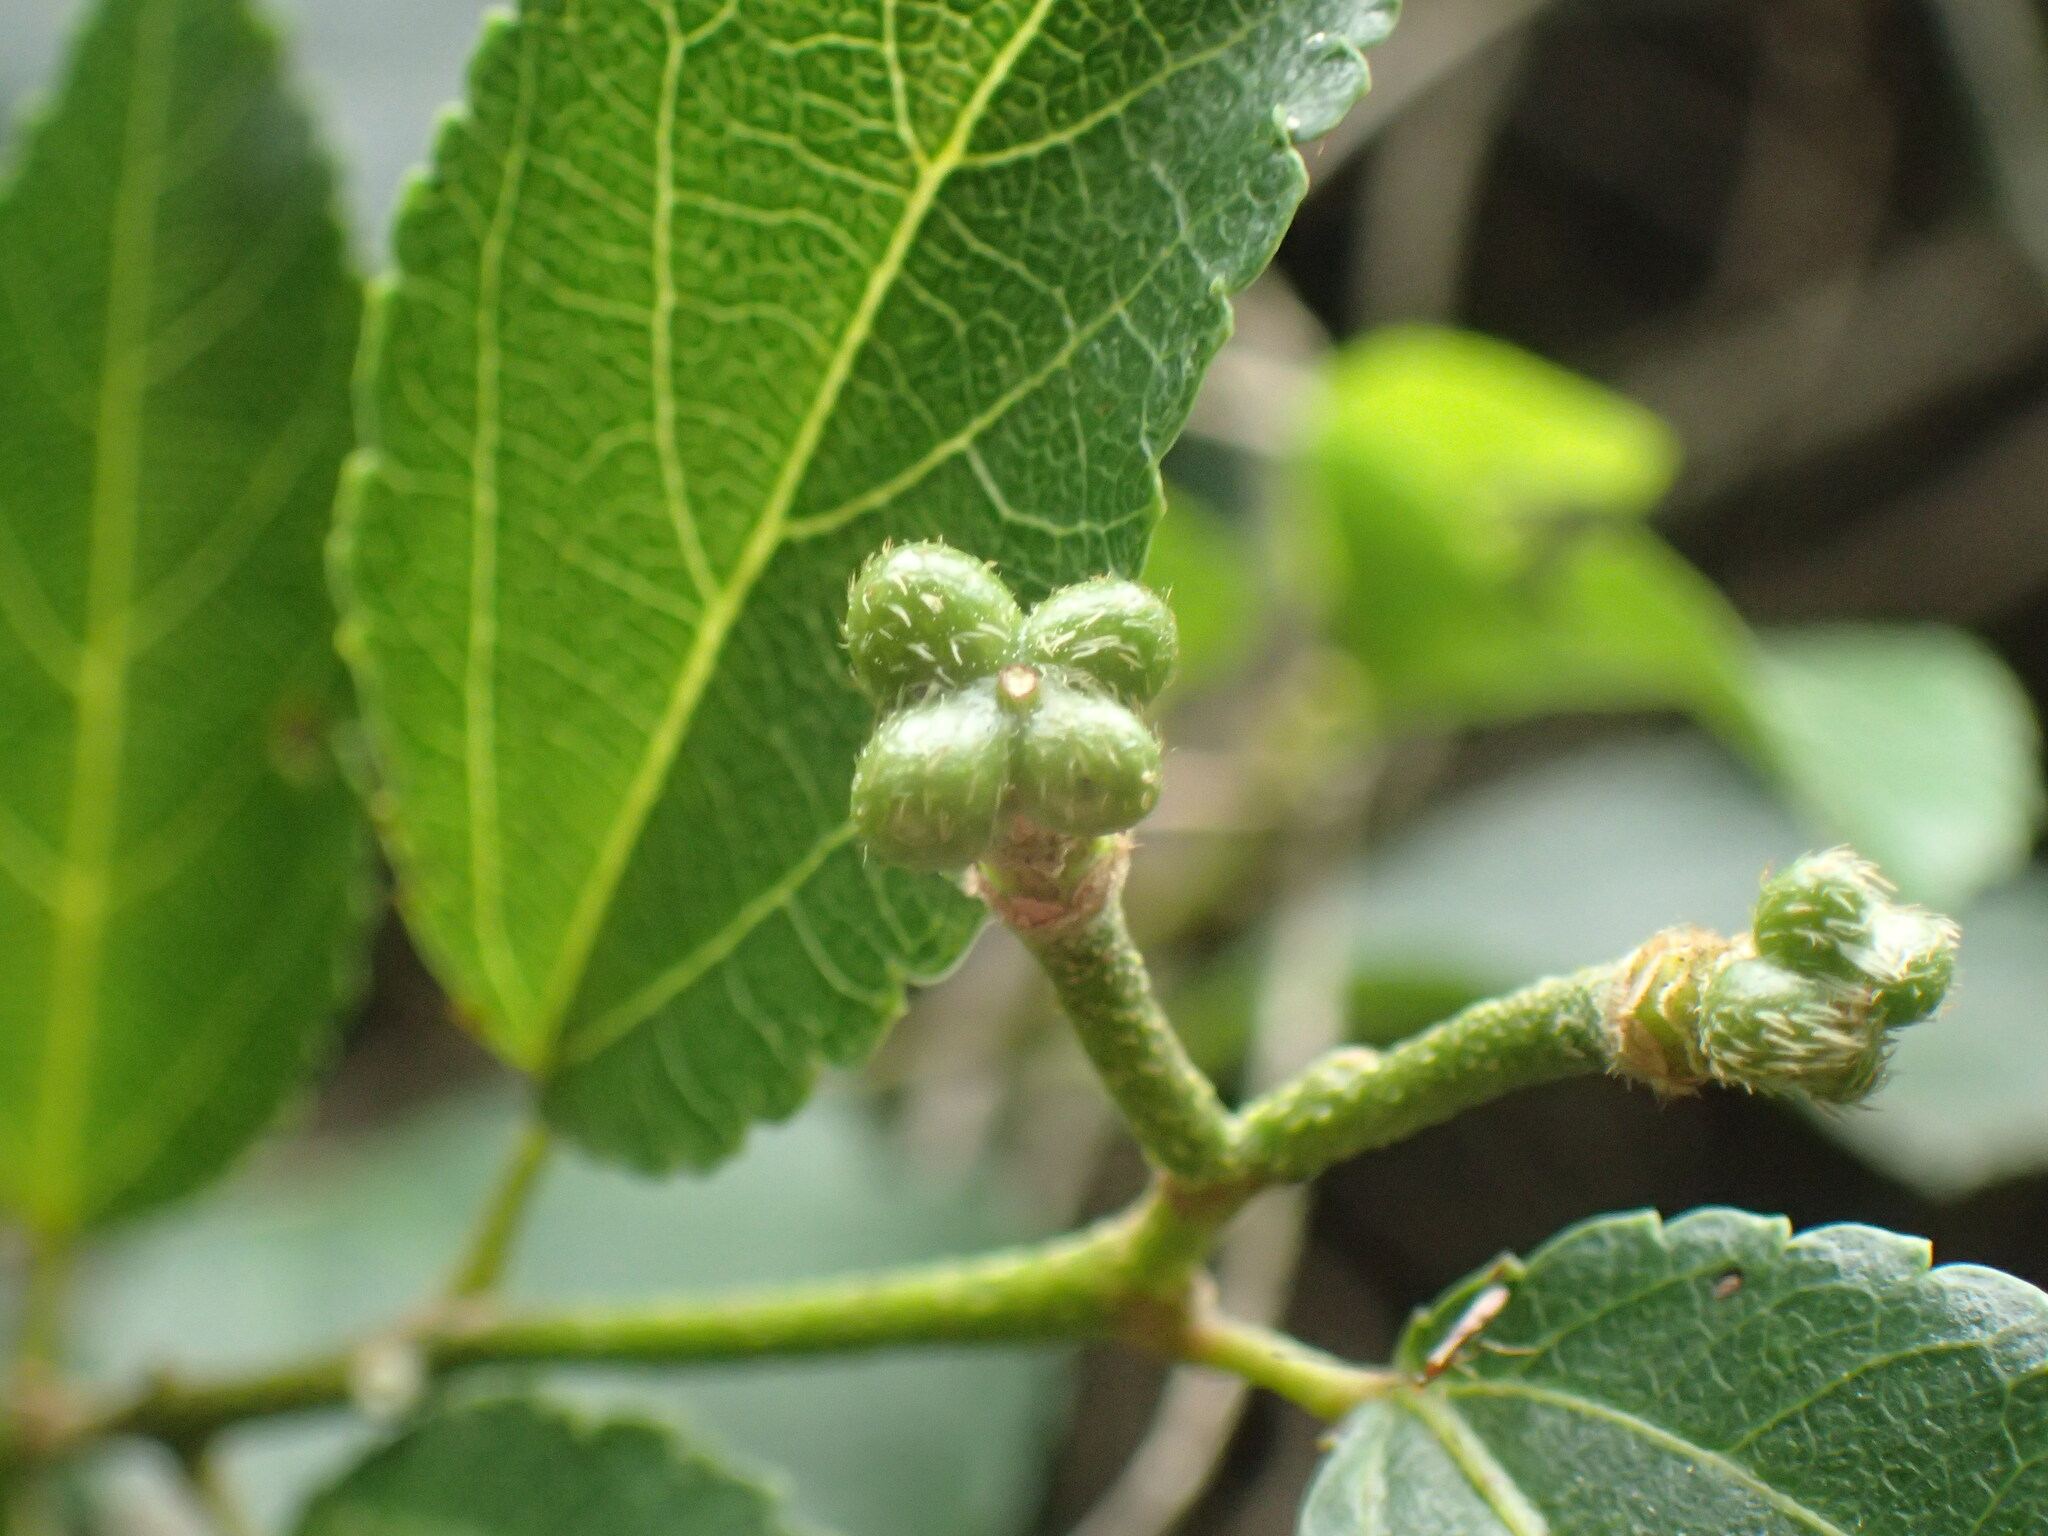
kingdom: Plantae
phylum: Tracheophyta
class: Magnoliopsida
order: Malvales
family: Malvaceae
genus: Grewia
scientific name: Grewia occidentalis
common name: Crossberry
